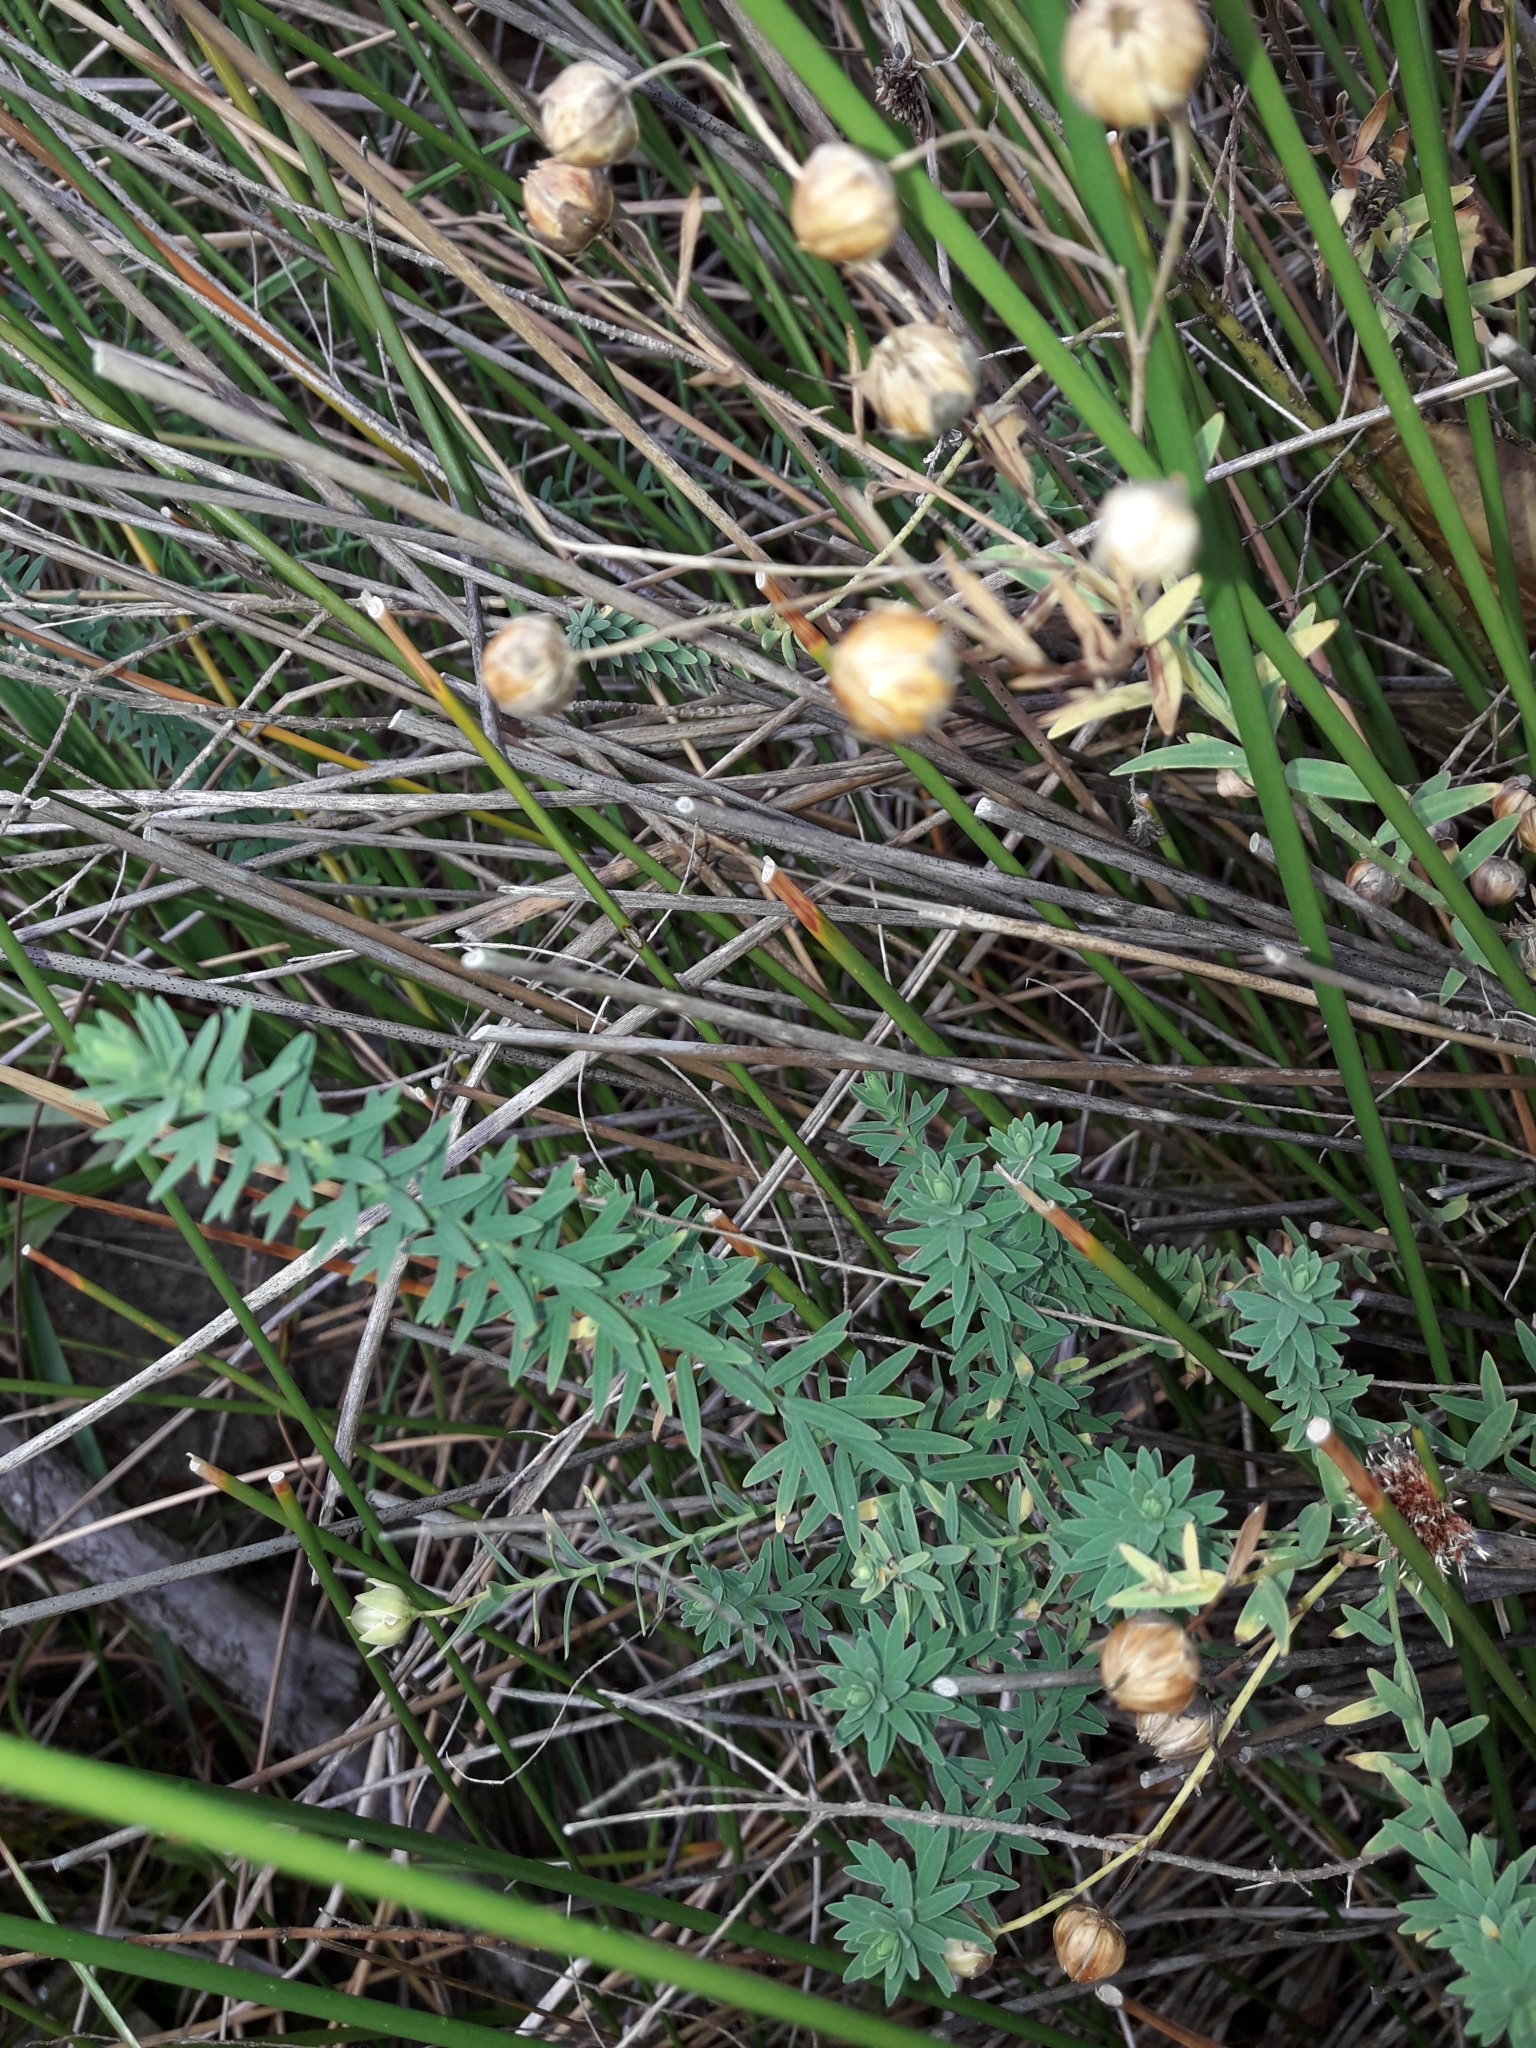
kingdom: Plantae
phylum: Tracheophyta
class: Magnoliopsida
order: Malpighiales
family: Linaceae
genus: Linum
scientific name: Linum monogynum
